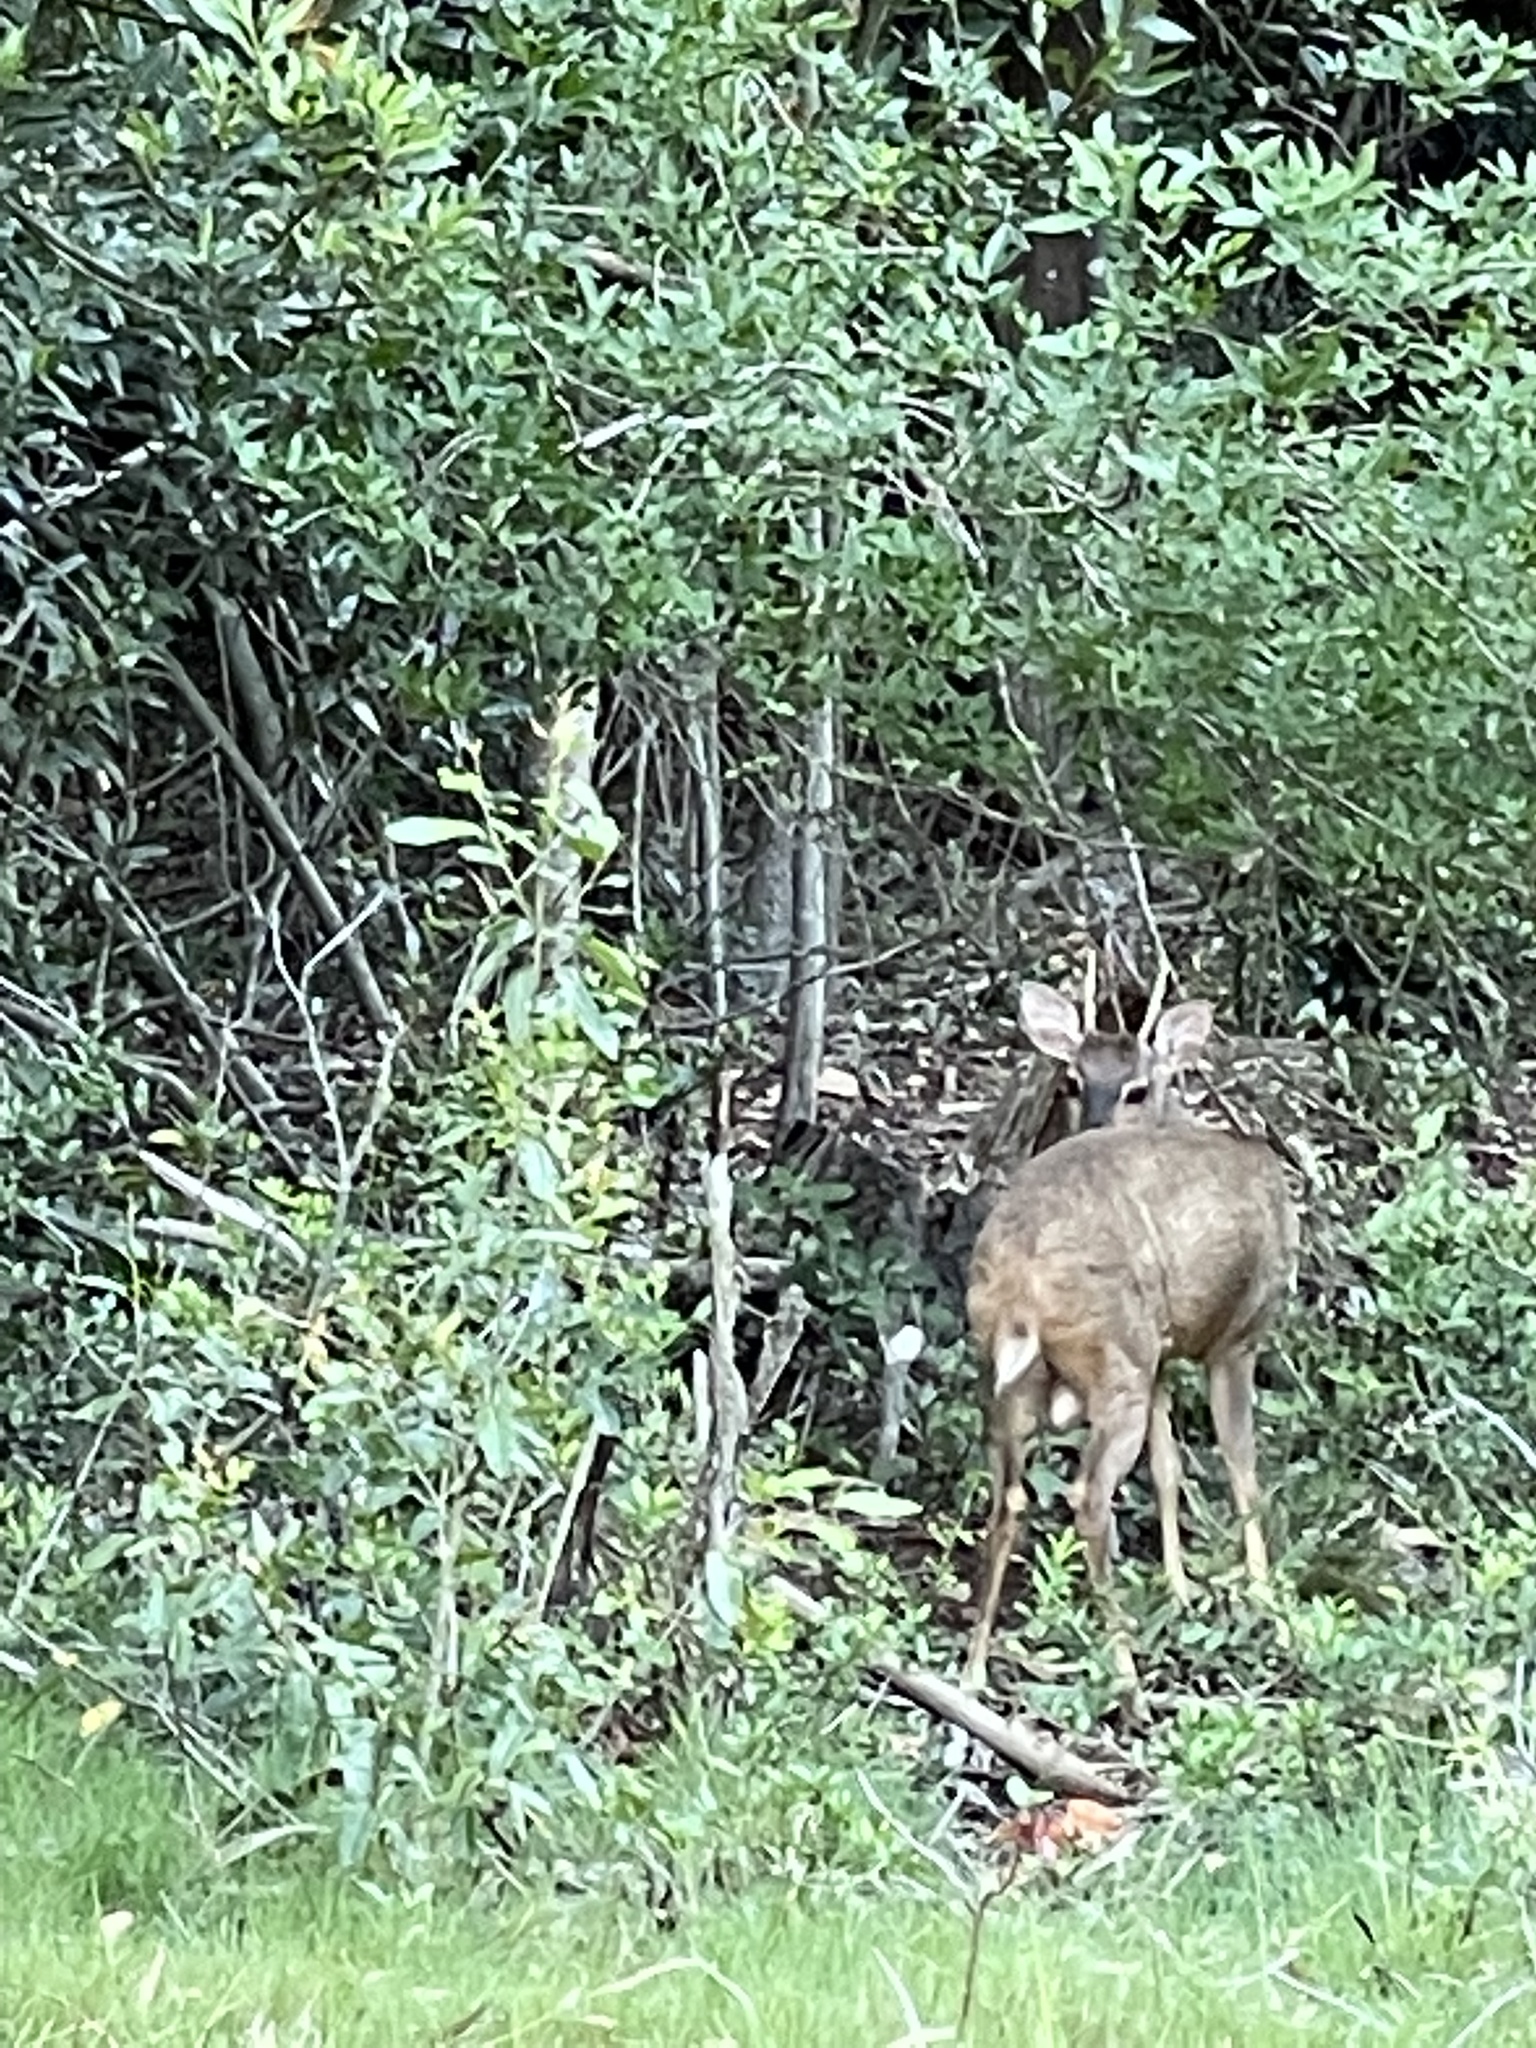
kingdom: Animalia
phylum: Chordata
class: Mammalia
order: Artiodactyla
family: Cervidae
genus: Mazama
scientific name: Mazama gouazoubira
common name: Gray brocket
